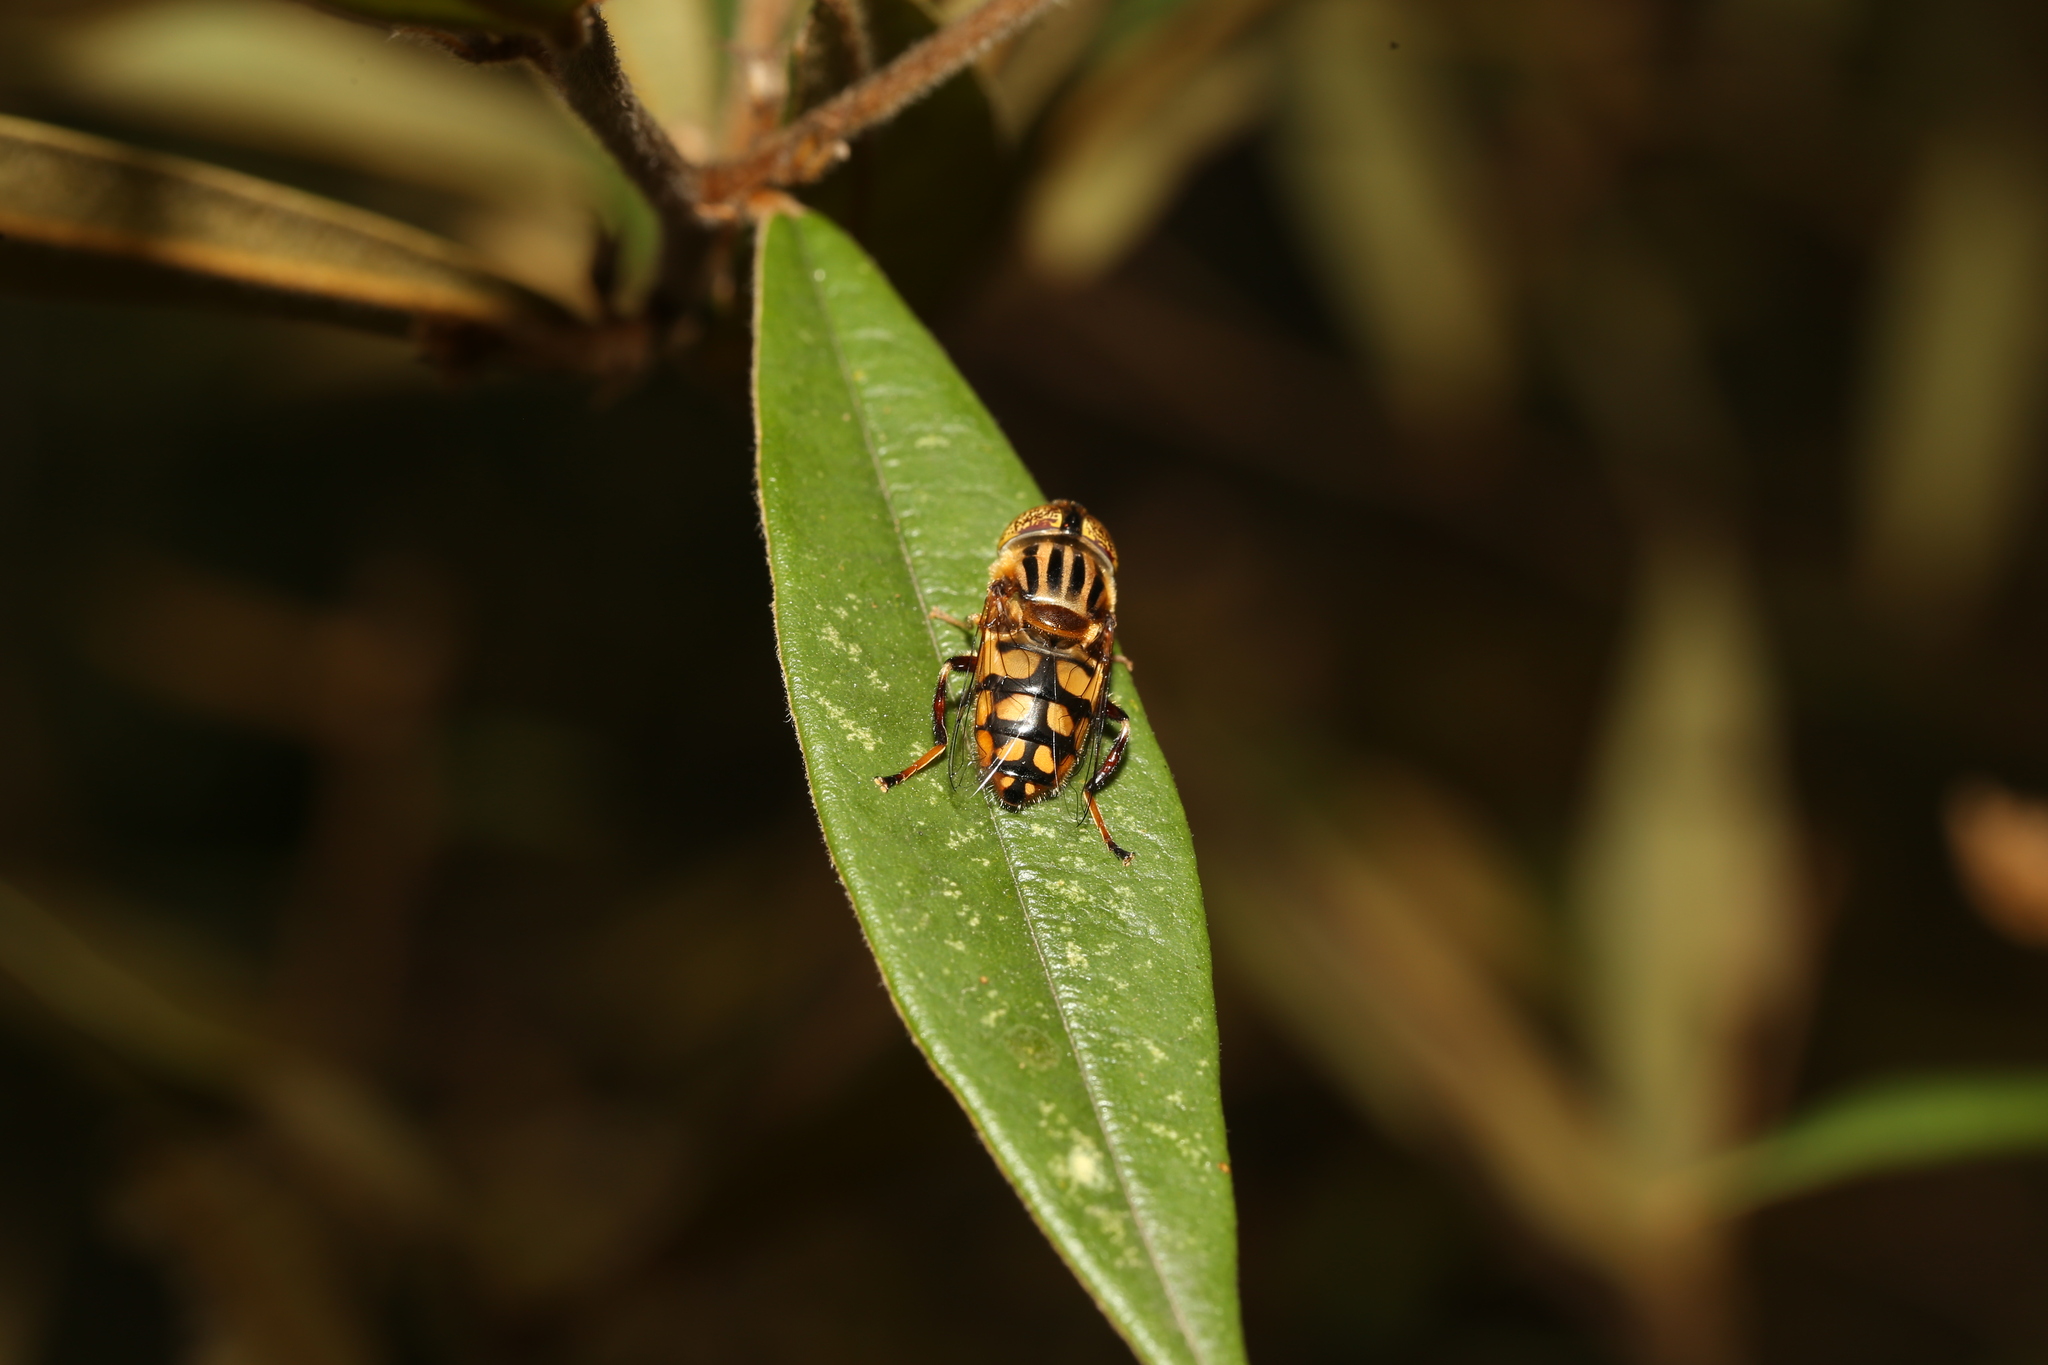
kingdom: Animalia
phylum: Arthropoda
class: Insecta
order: Diptera
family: Syrphidae
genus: Eristalinus
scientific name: Eristalinus punctulatus
